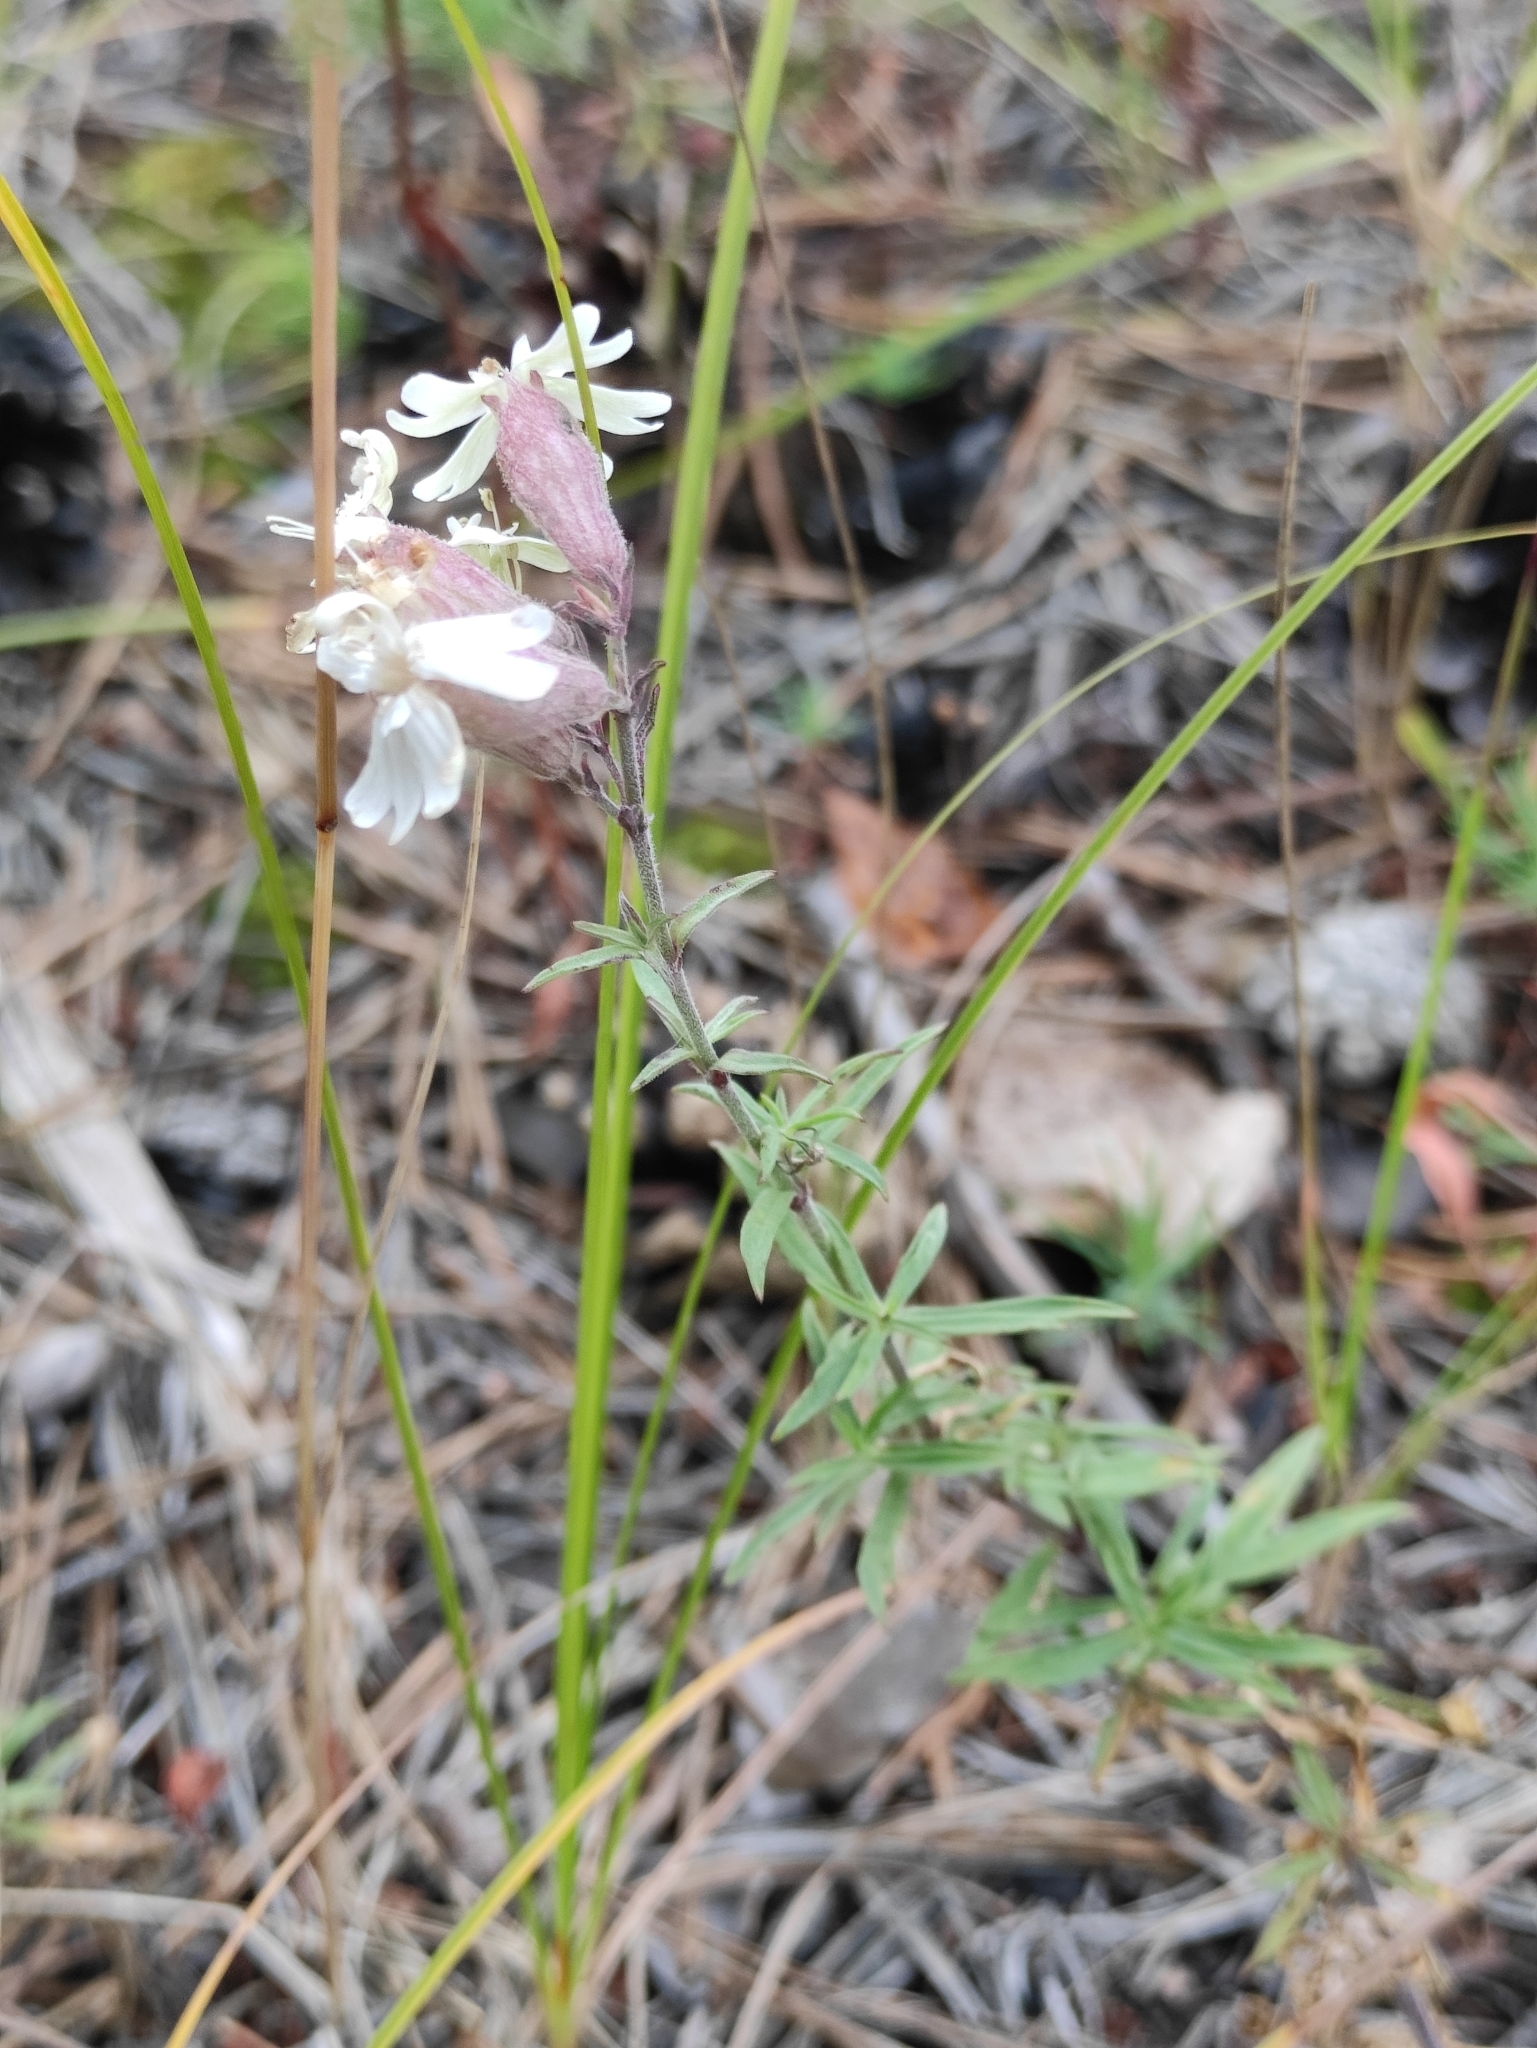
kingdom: Plantae
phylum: Tracheophyta
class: Magnoliopsida
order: Caryophyllales
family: Caryophyllaceae
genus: Silene
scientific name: Silene amoena
